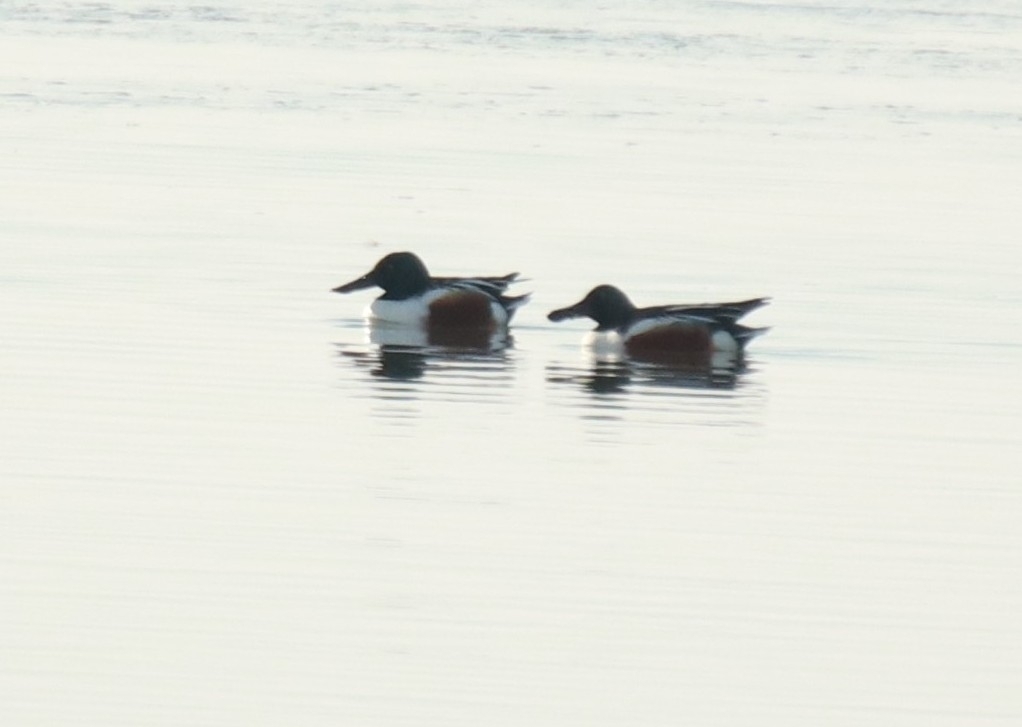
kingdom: Animalia
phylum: Chordata
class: Aves
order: Anseriformes
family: Anatidae
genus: Spatula
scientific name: Spatula clypeata
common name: Northern shoveler
